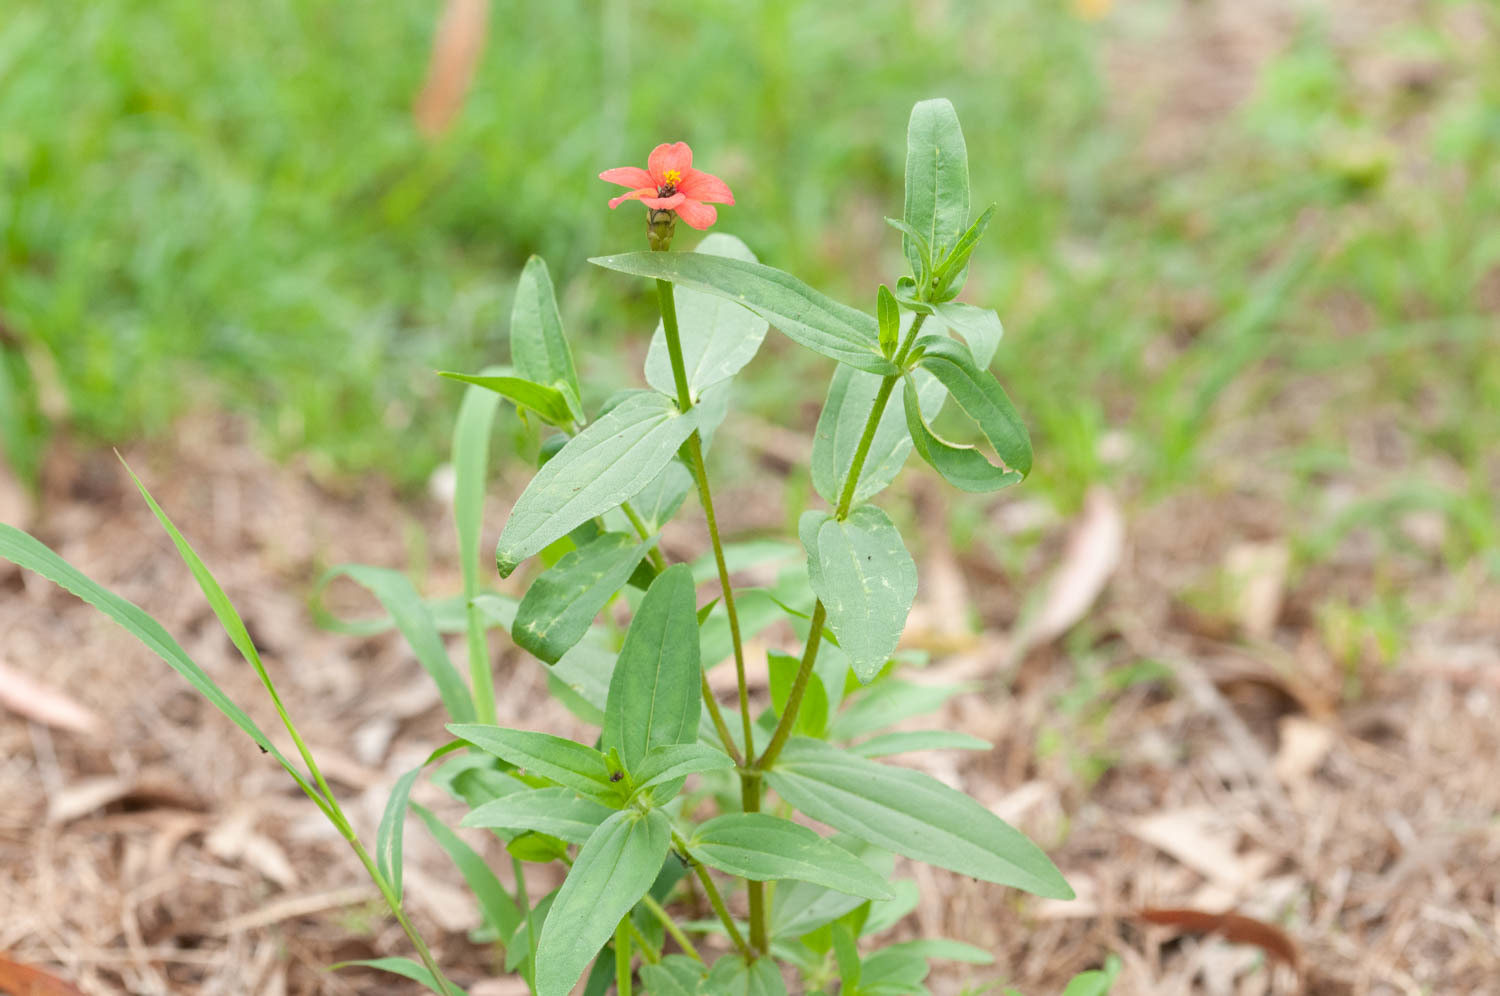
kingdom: Plantae
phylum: Tracheophyta
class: Magnoliopsida
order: Asterales
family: Asteraceae
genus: Zinnia
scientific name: Zinnia peruviana
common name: Peruvian zinnia
